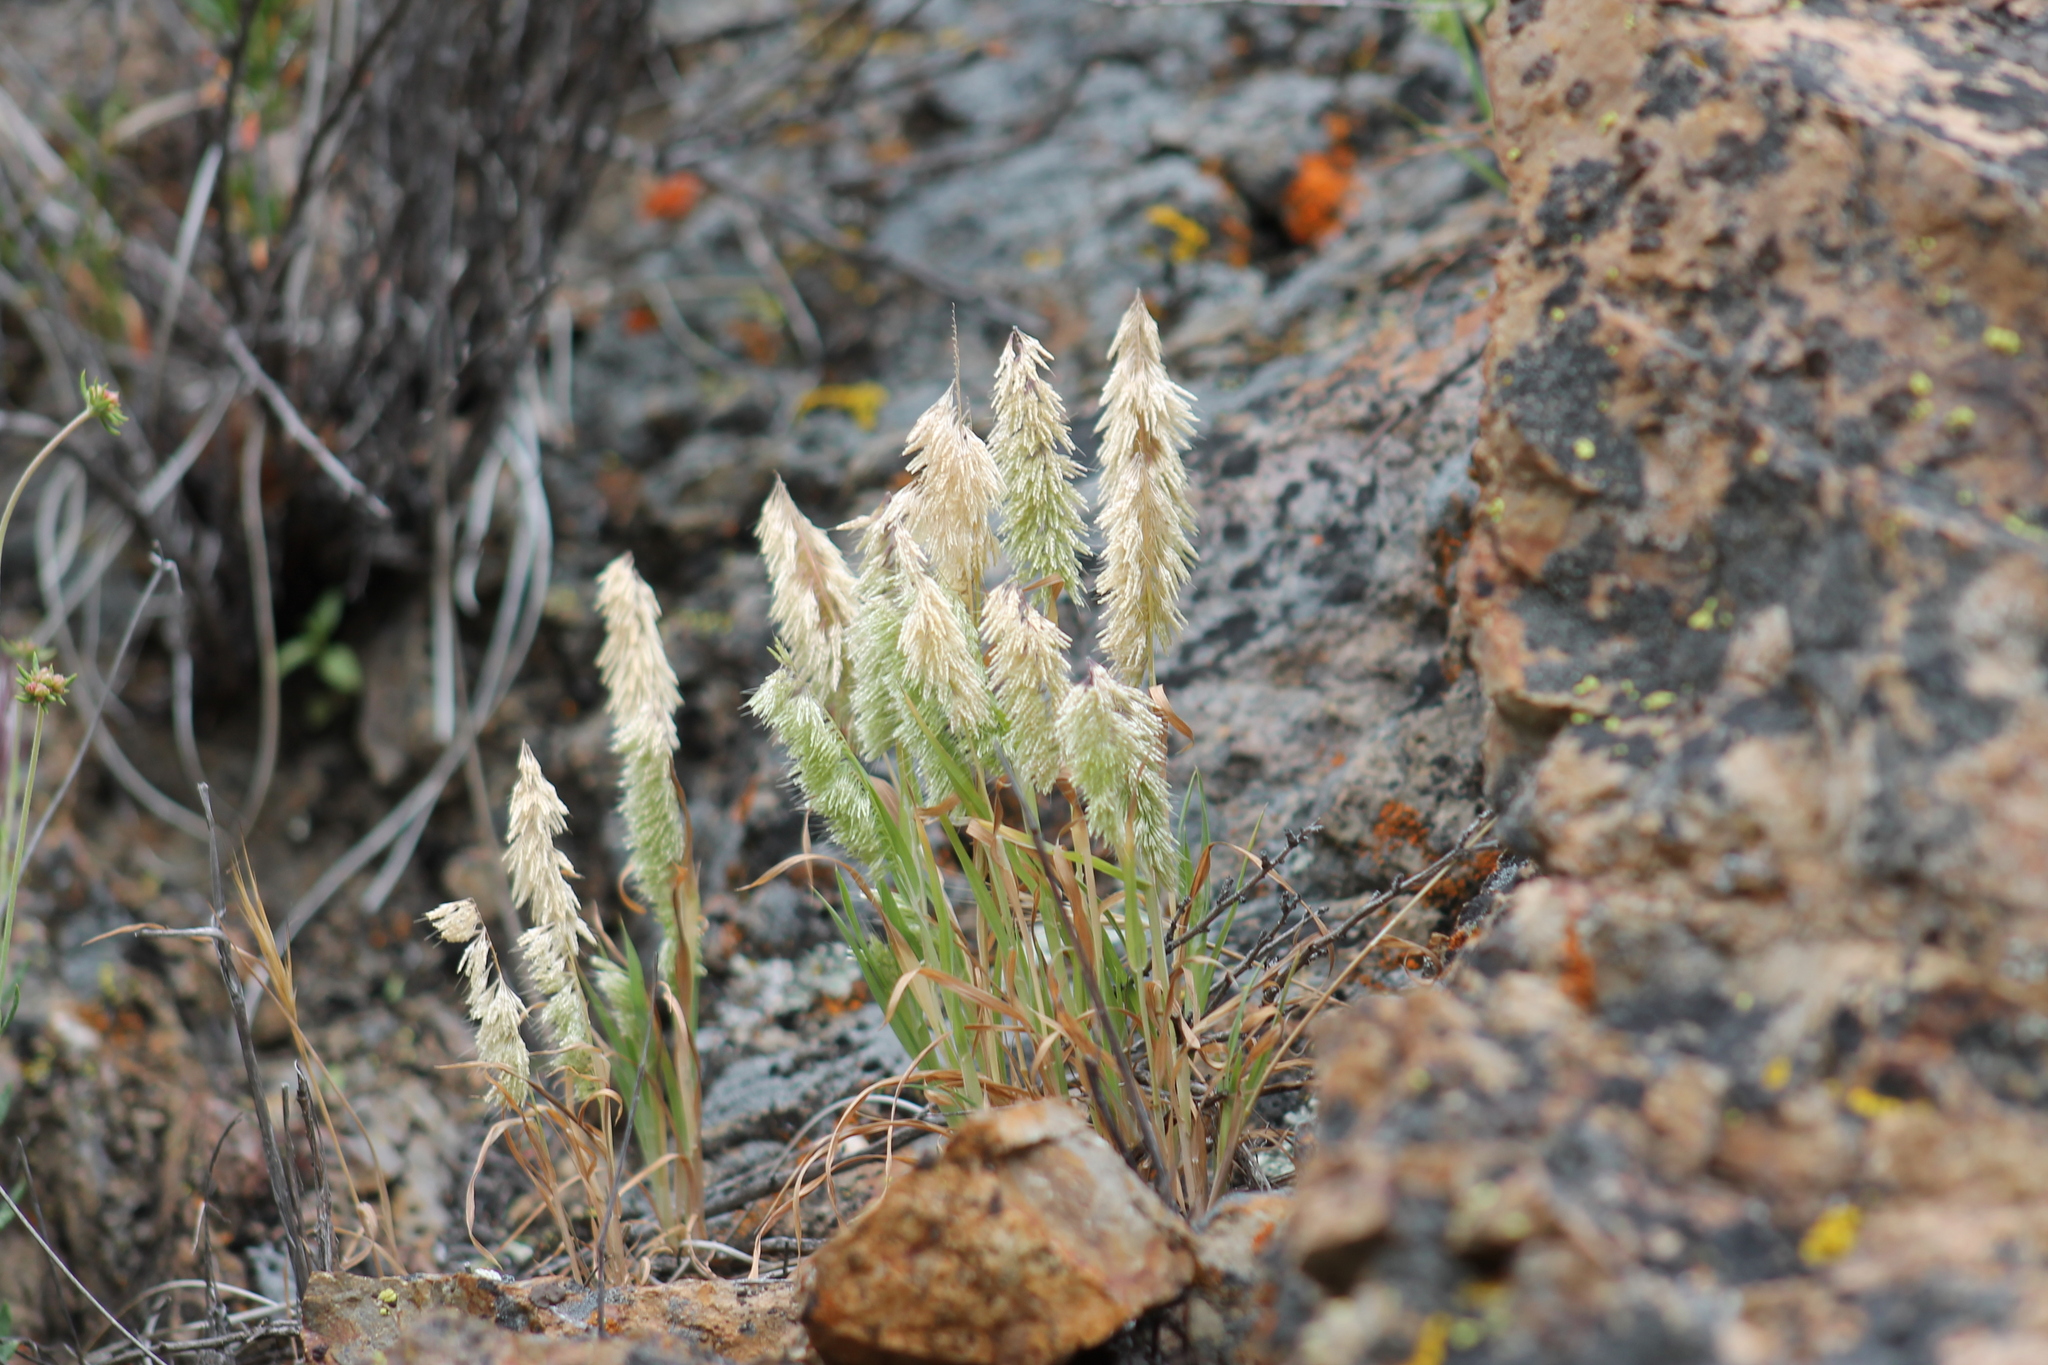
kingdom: Plantae
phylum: Tracheophyta
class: Liliopsida
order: Poales
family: Poaceae
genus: Lamarckia
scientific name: Lamarckia aurea
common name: Golden dog's-tail
